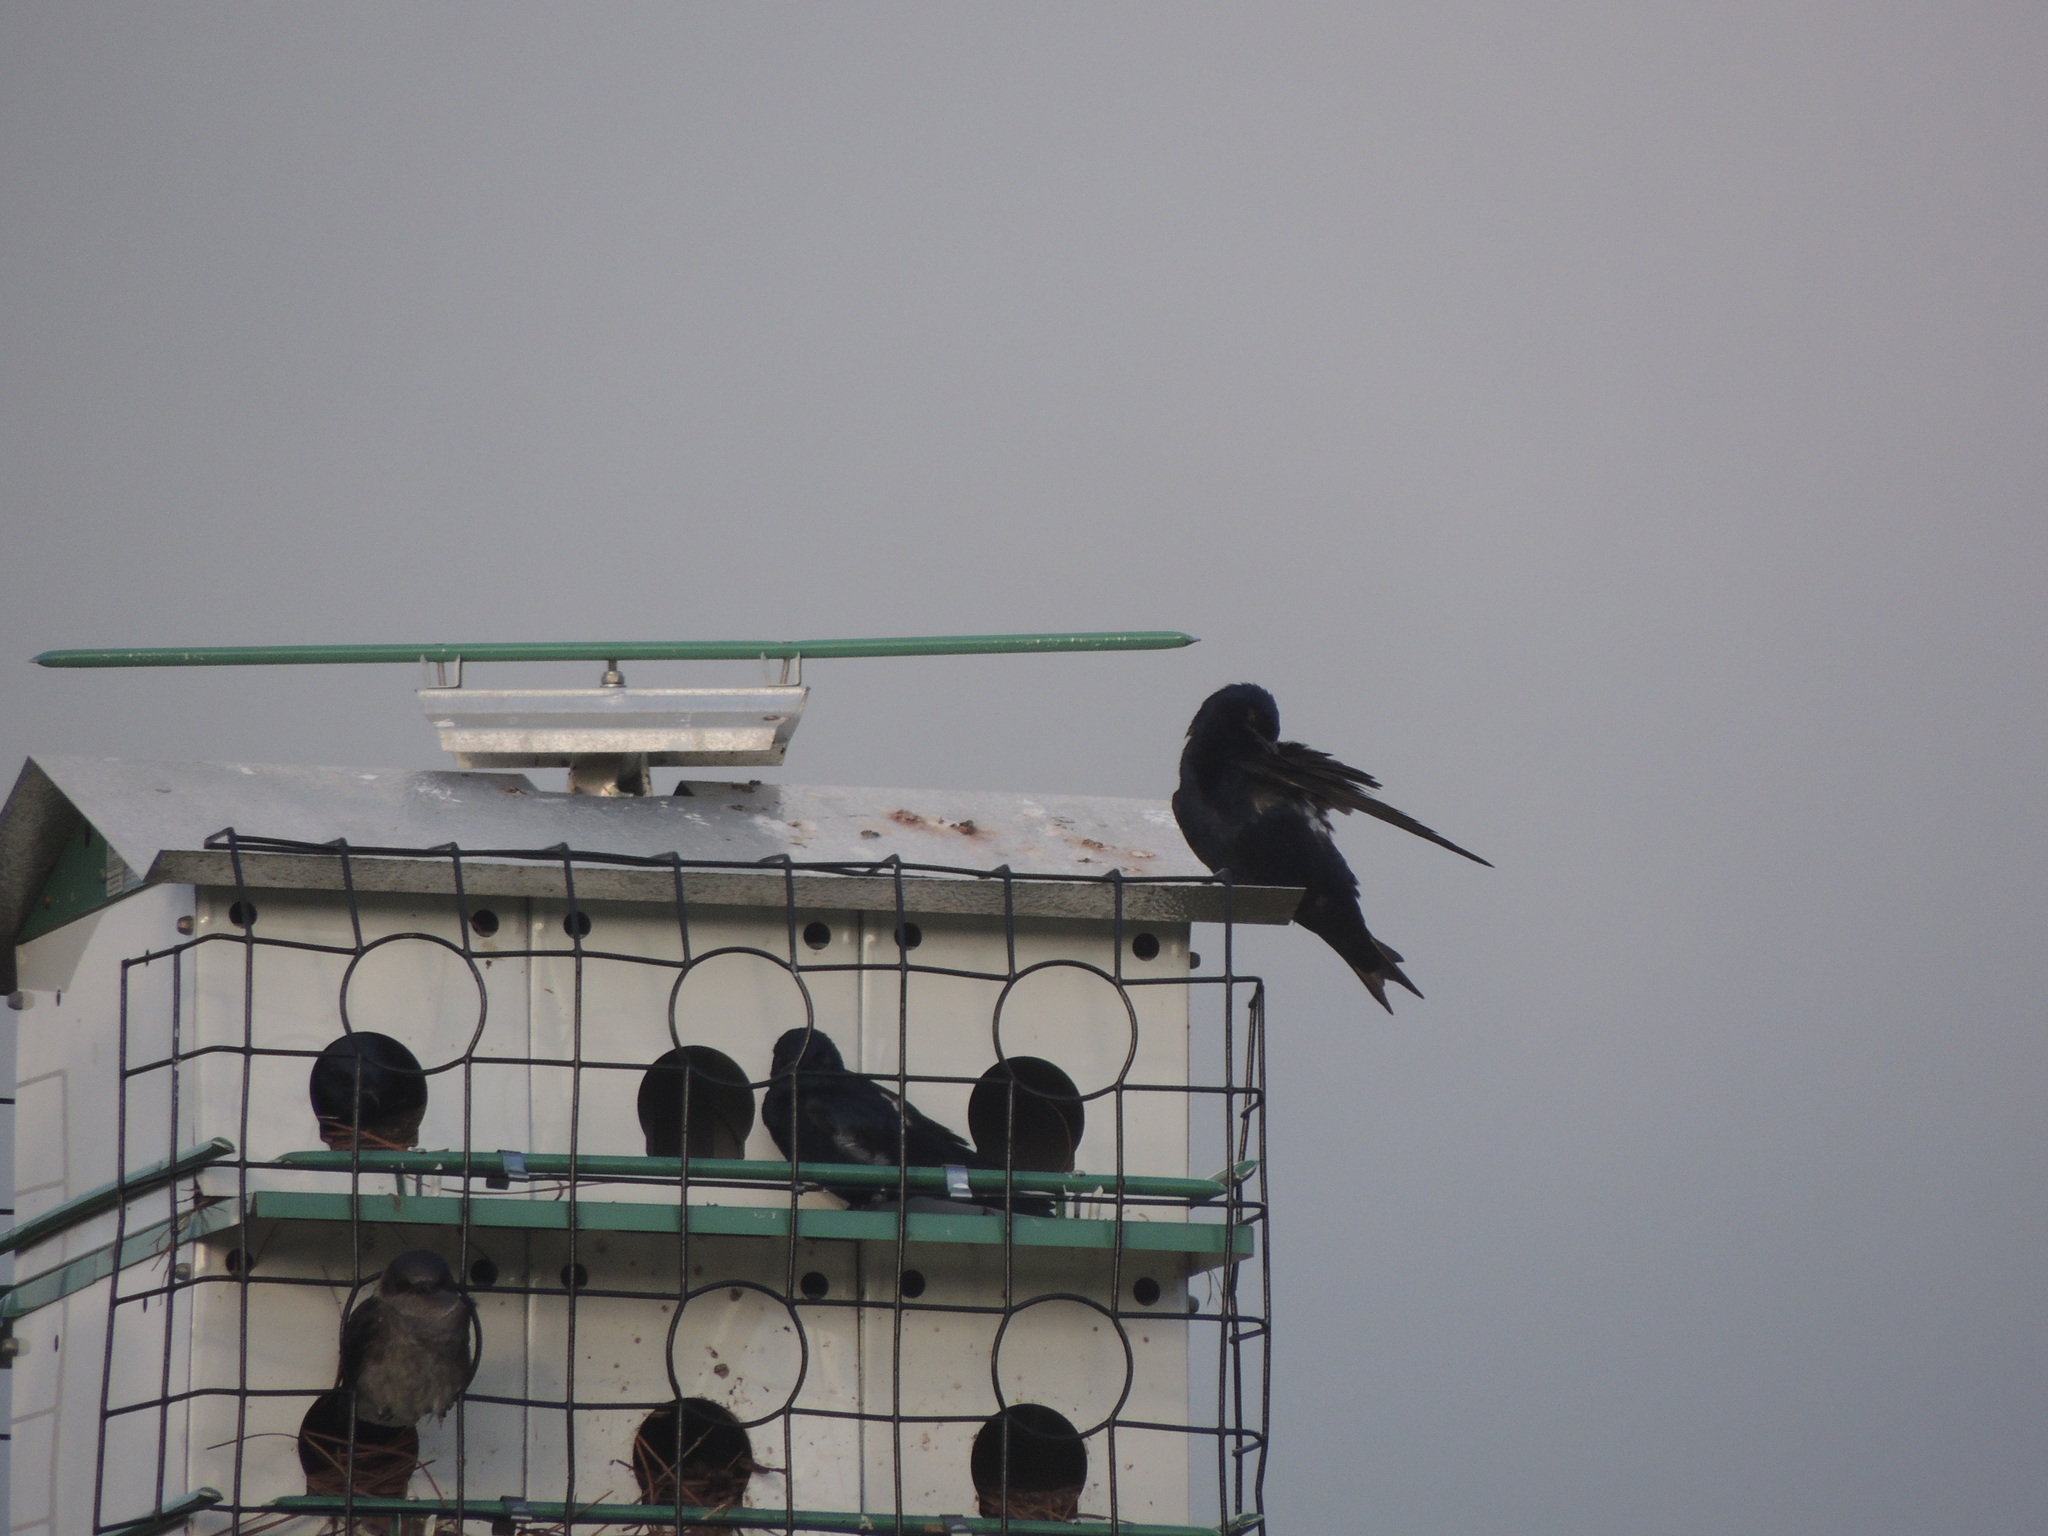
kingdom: Animalia
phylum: Chordata
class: Aves
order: Passeriformes
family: Hirundinidae
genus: Progne
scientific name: Progne subis
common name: Purple martin
